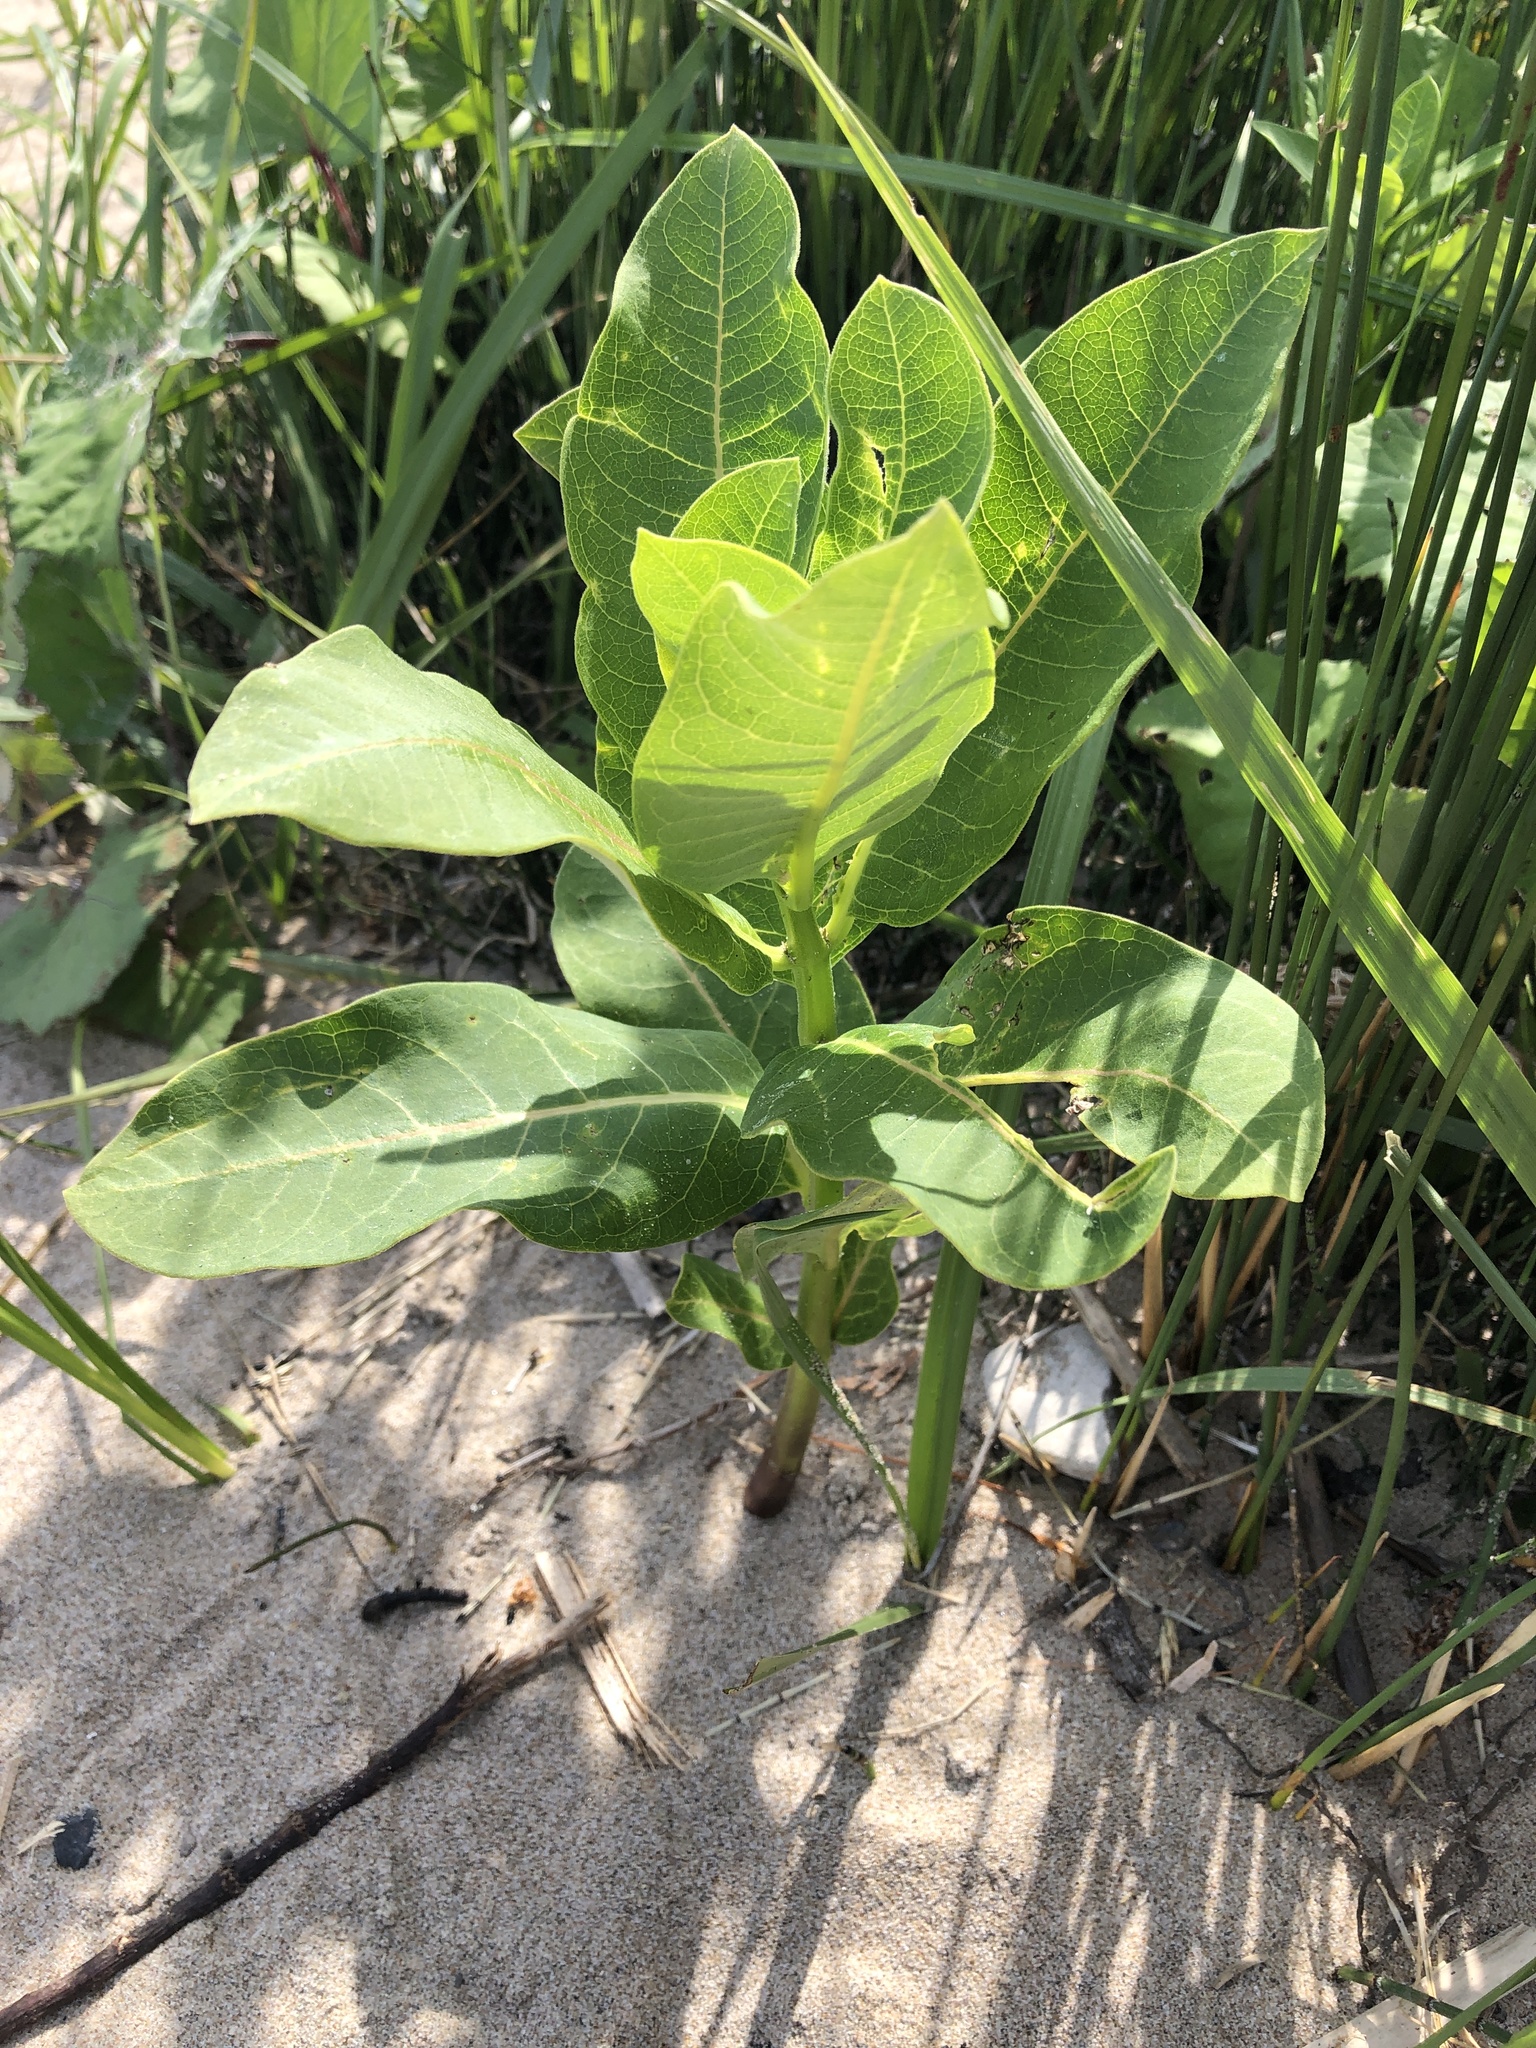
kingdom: Plantae
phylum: Tracheophyta
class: Magnoliopsida
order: Gentianales
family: Apocynaceae
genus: Asclepias
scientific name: Asclepias syriaca
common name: Common milkweed
